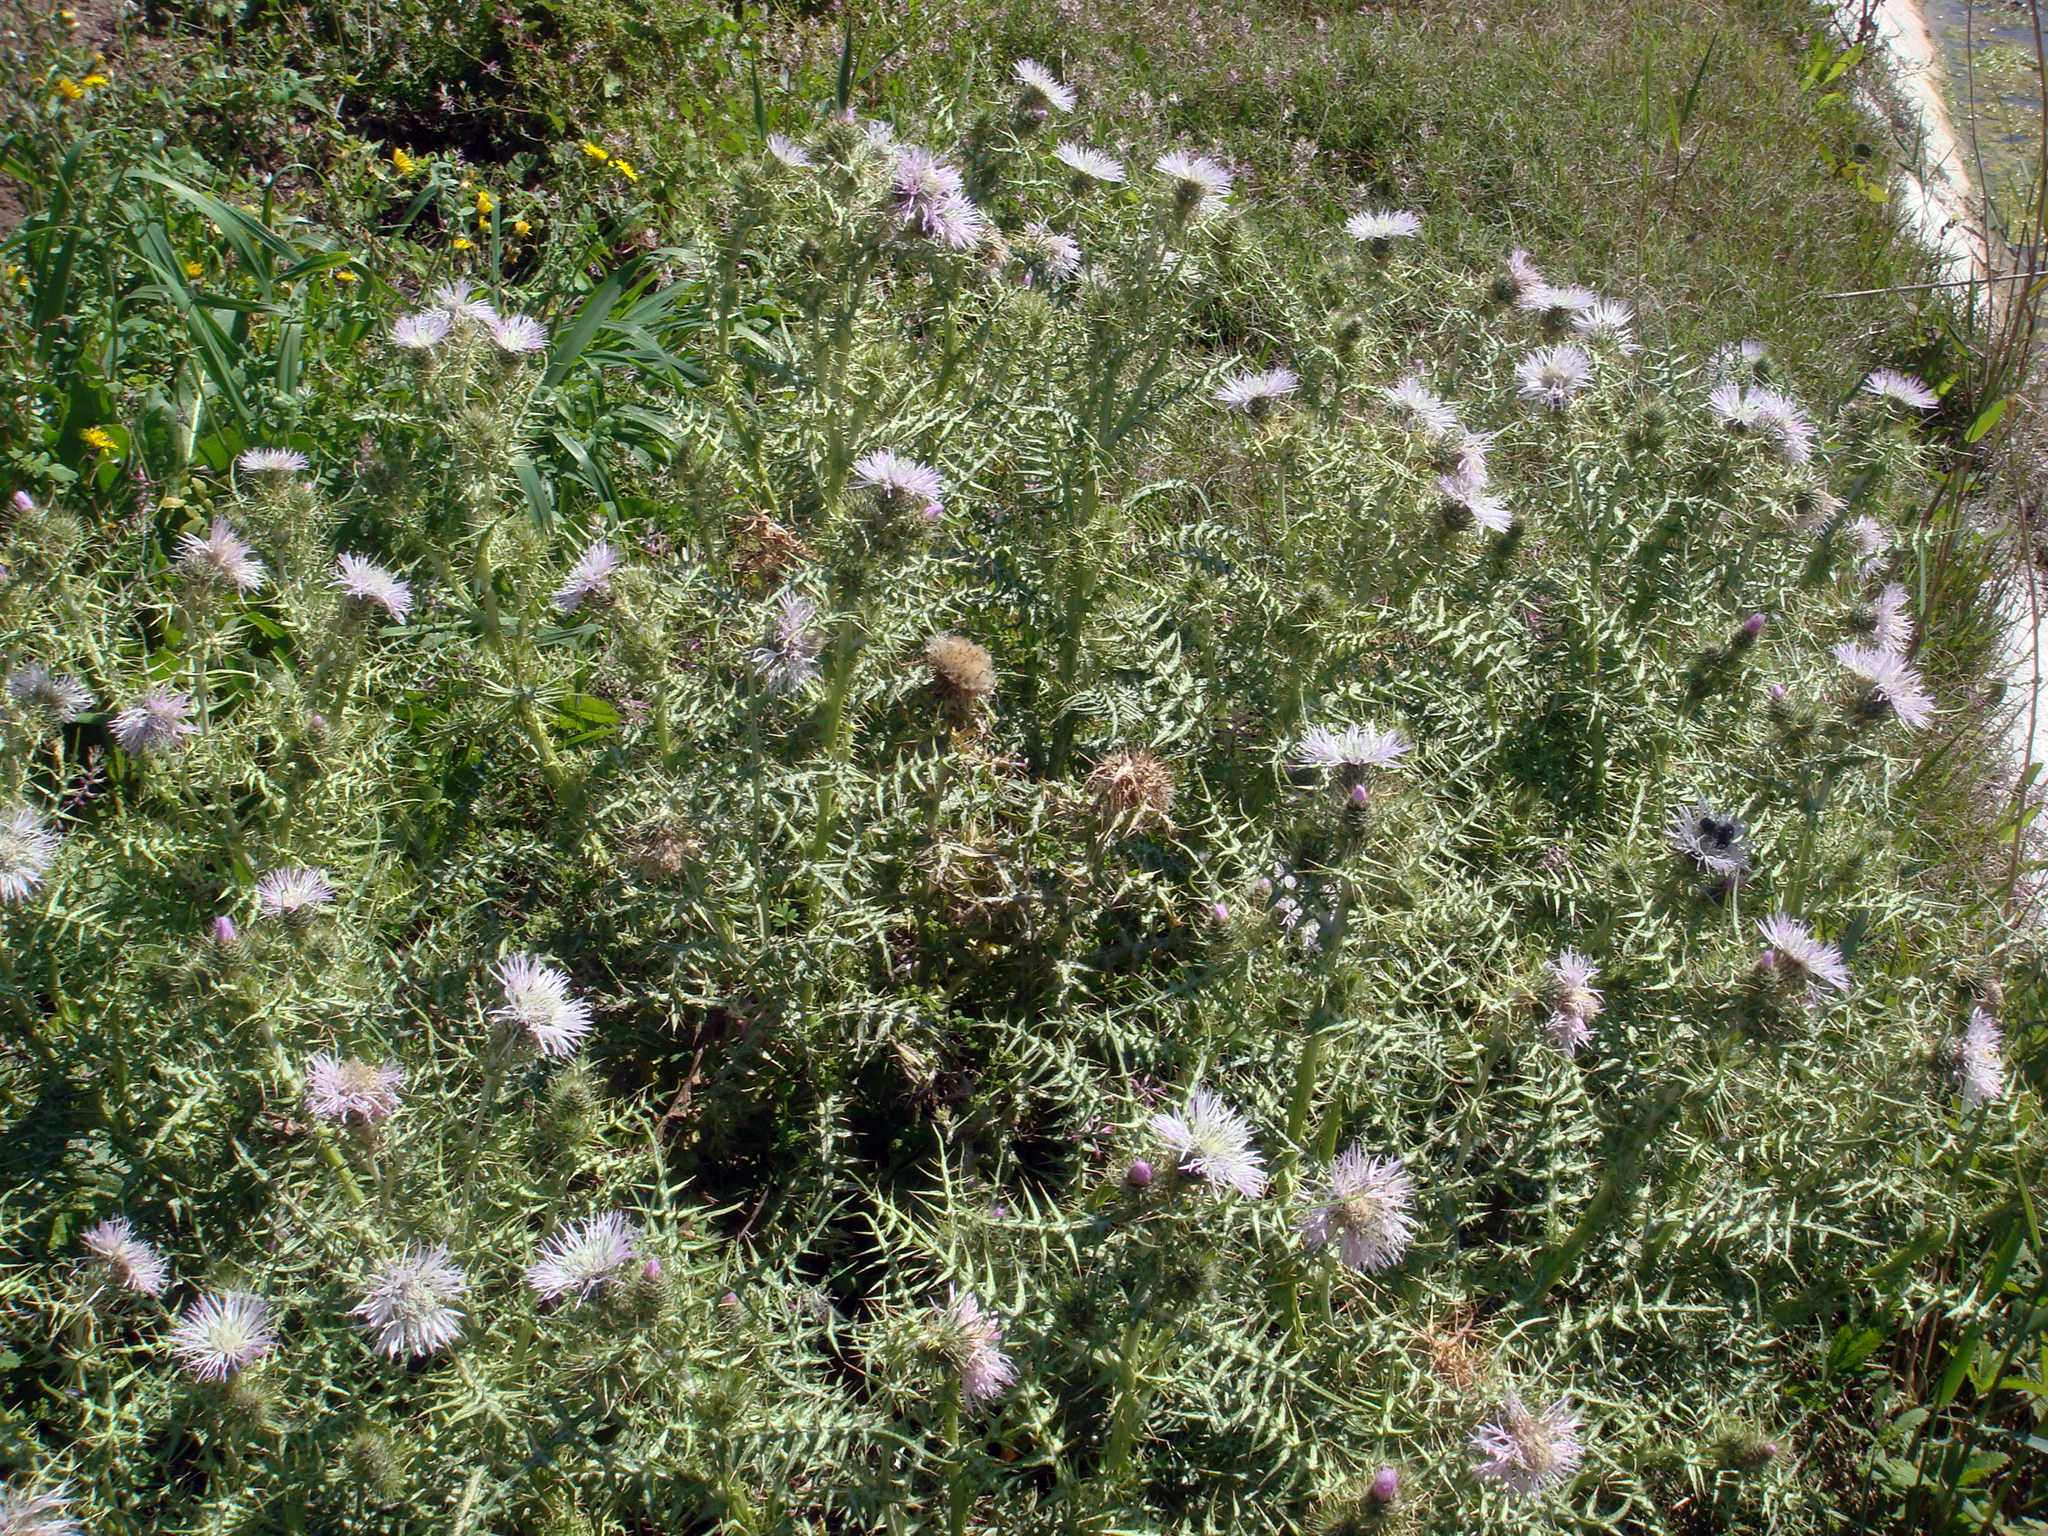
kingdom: Plantae
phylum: Tracheophyta
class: Magnoliopsida
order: Asterales
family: Asteraceae
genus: Galactites
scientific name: Galactites tomentosa
